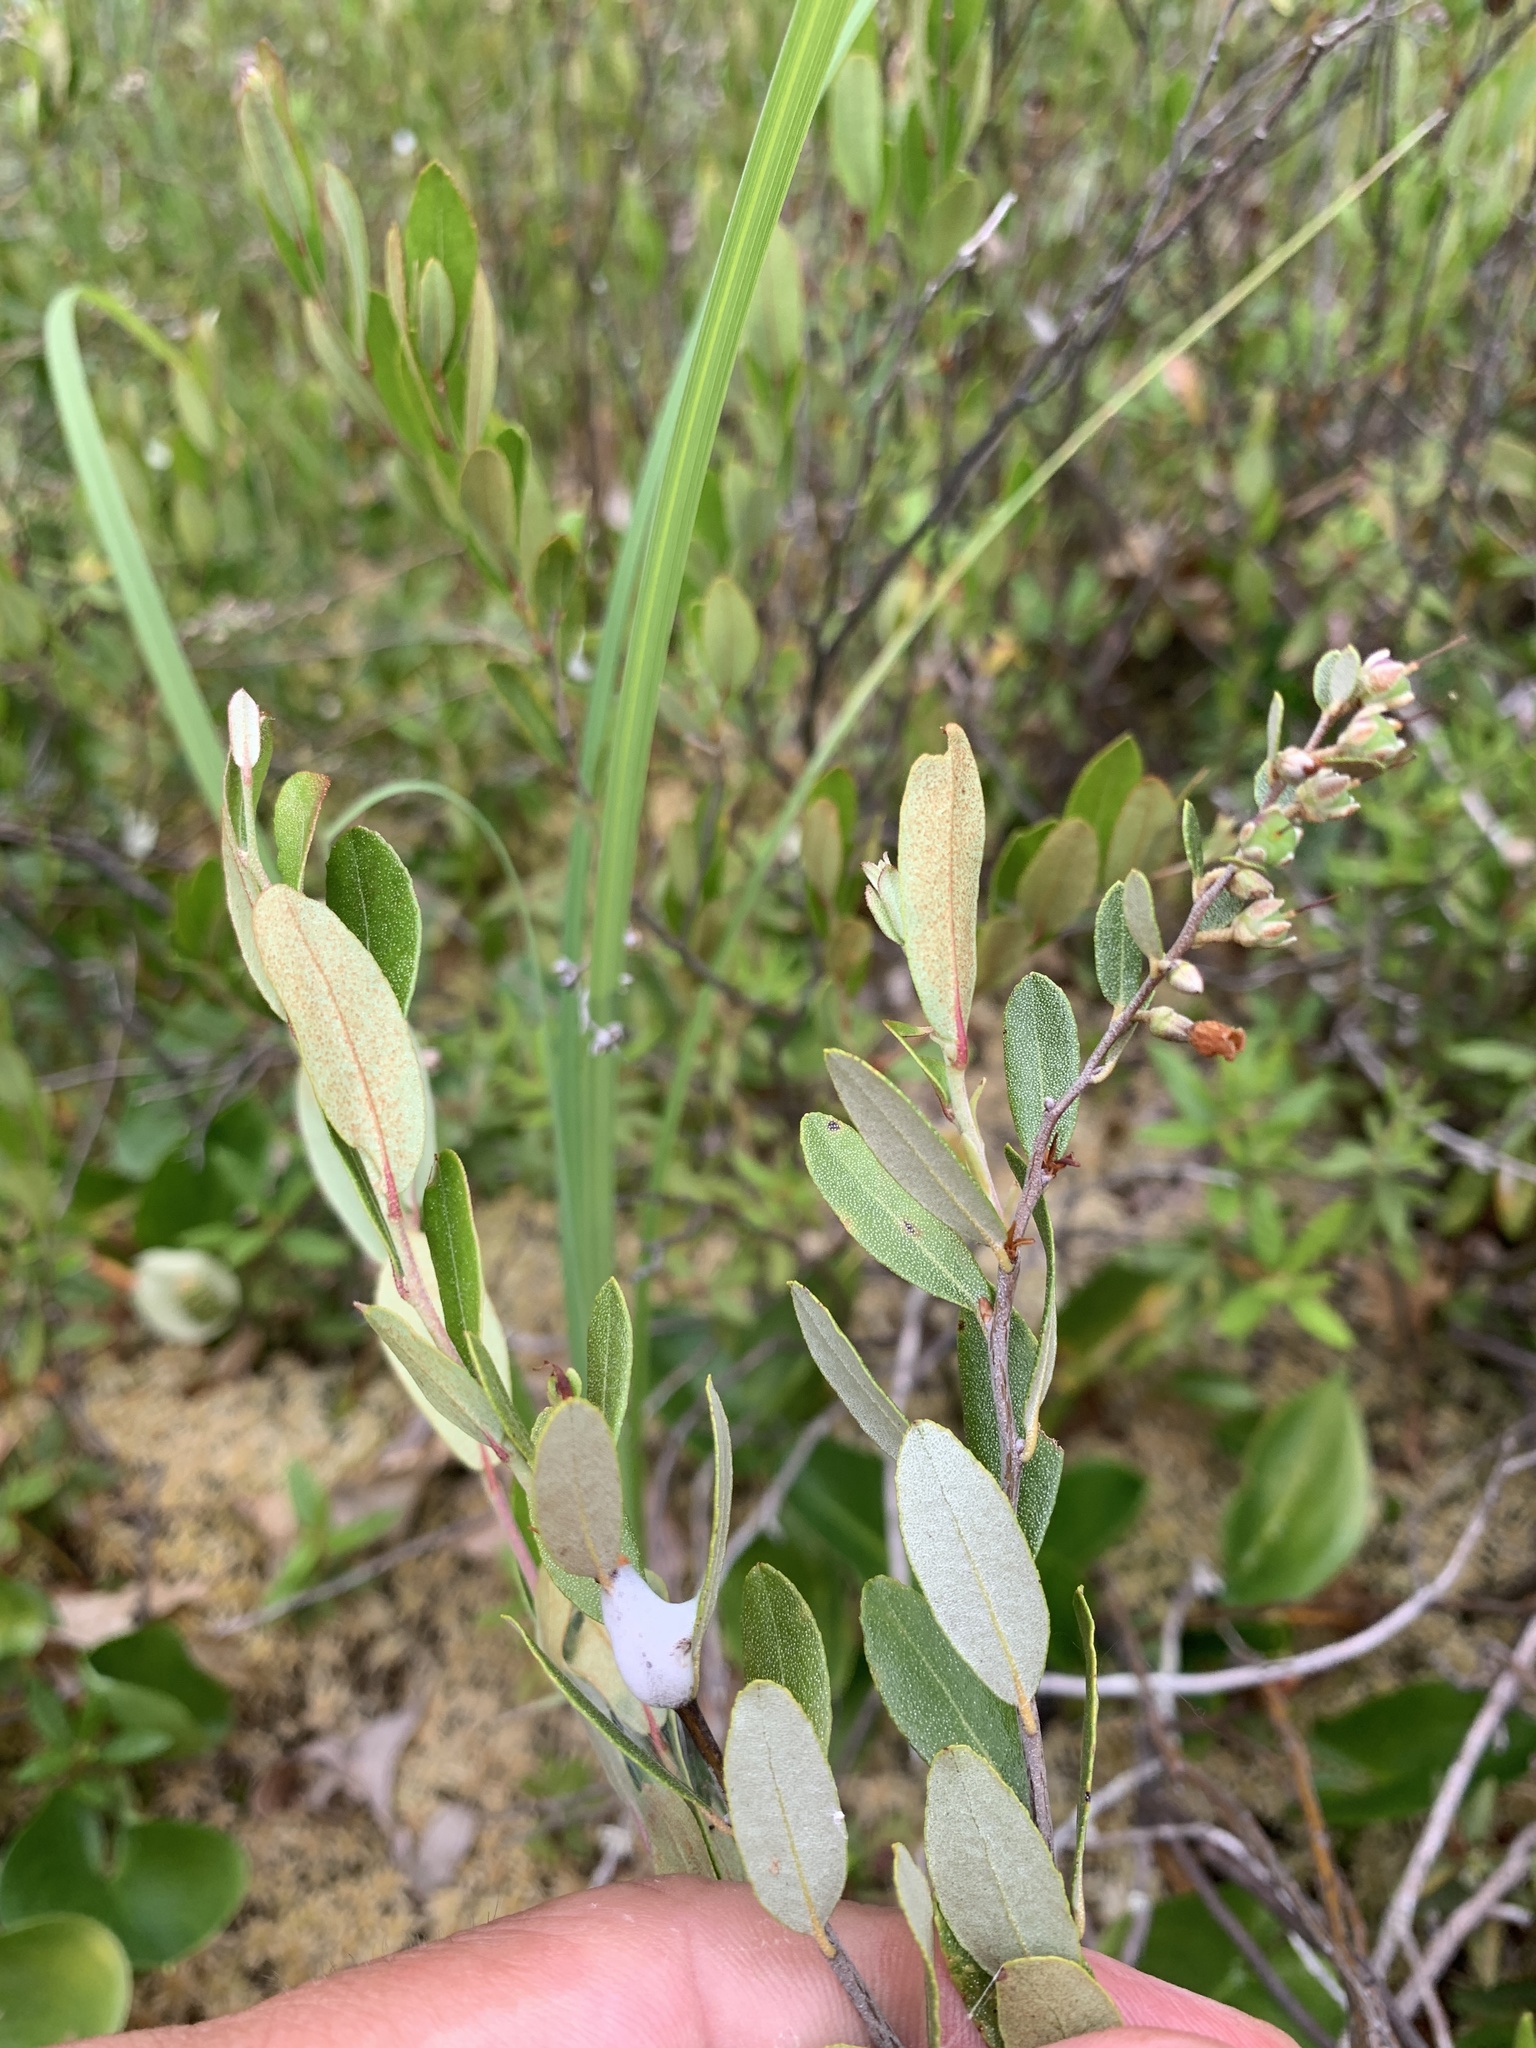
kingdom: Plantae
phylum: Tracheophyta
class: Magnoliopsida
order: Ericales
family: Ericaceae
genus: Chamaedaphne
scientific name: Chamaedaphne calyculata
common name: Leatherleaf
